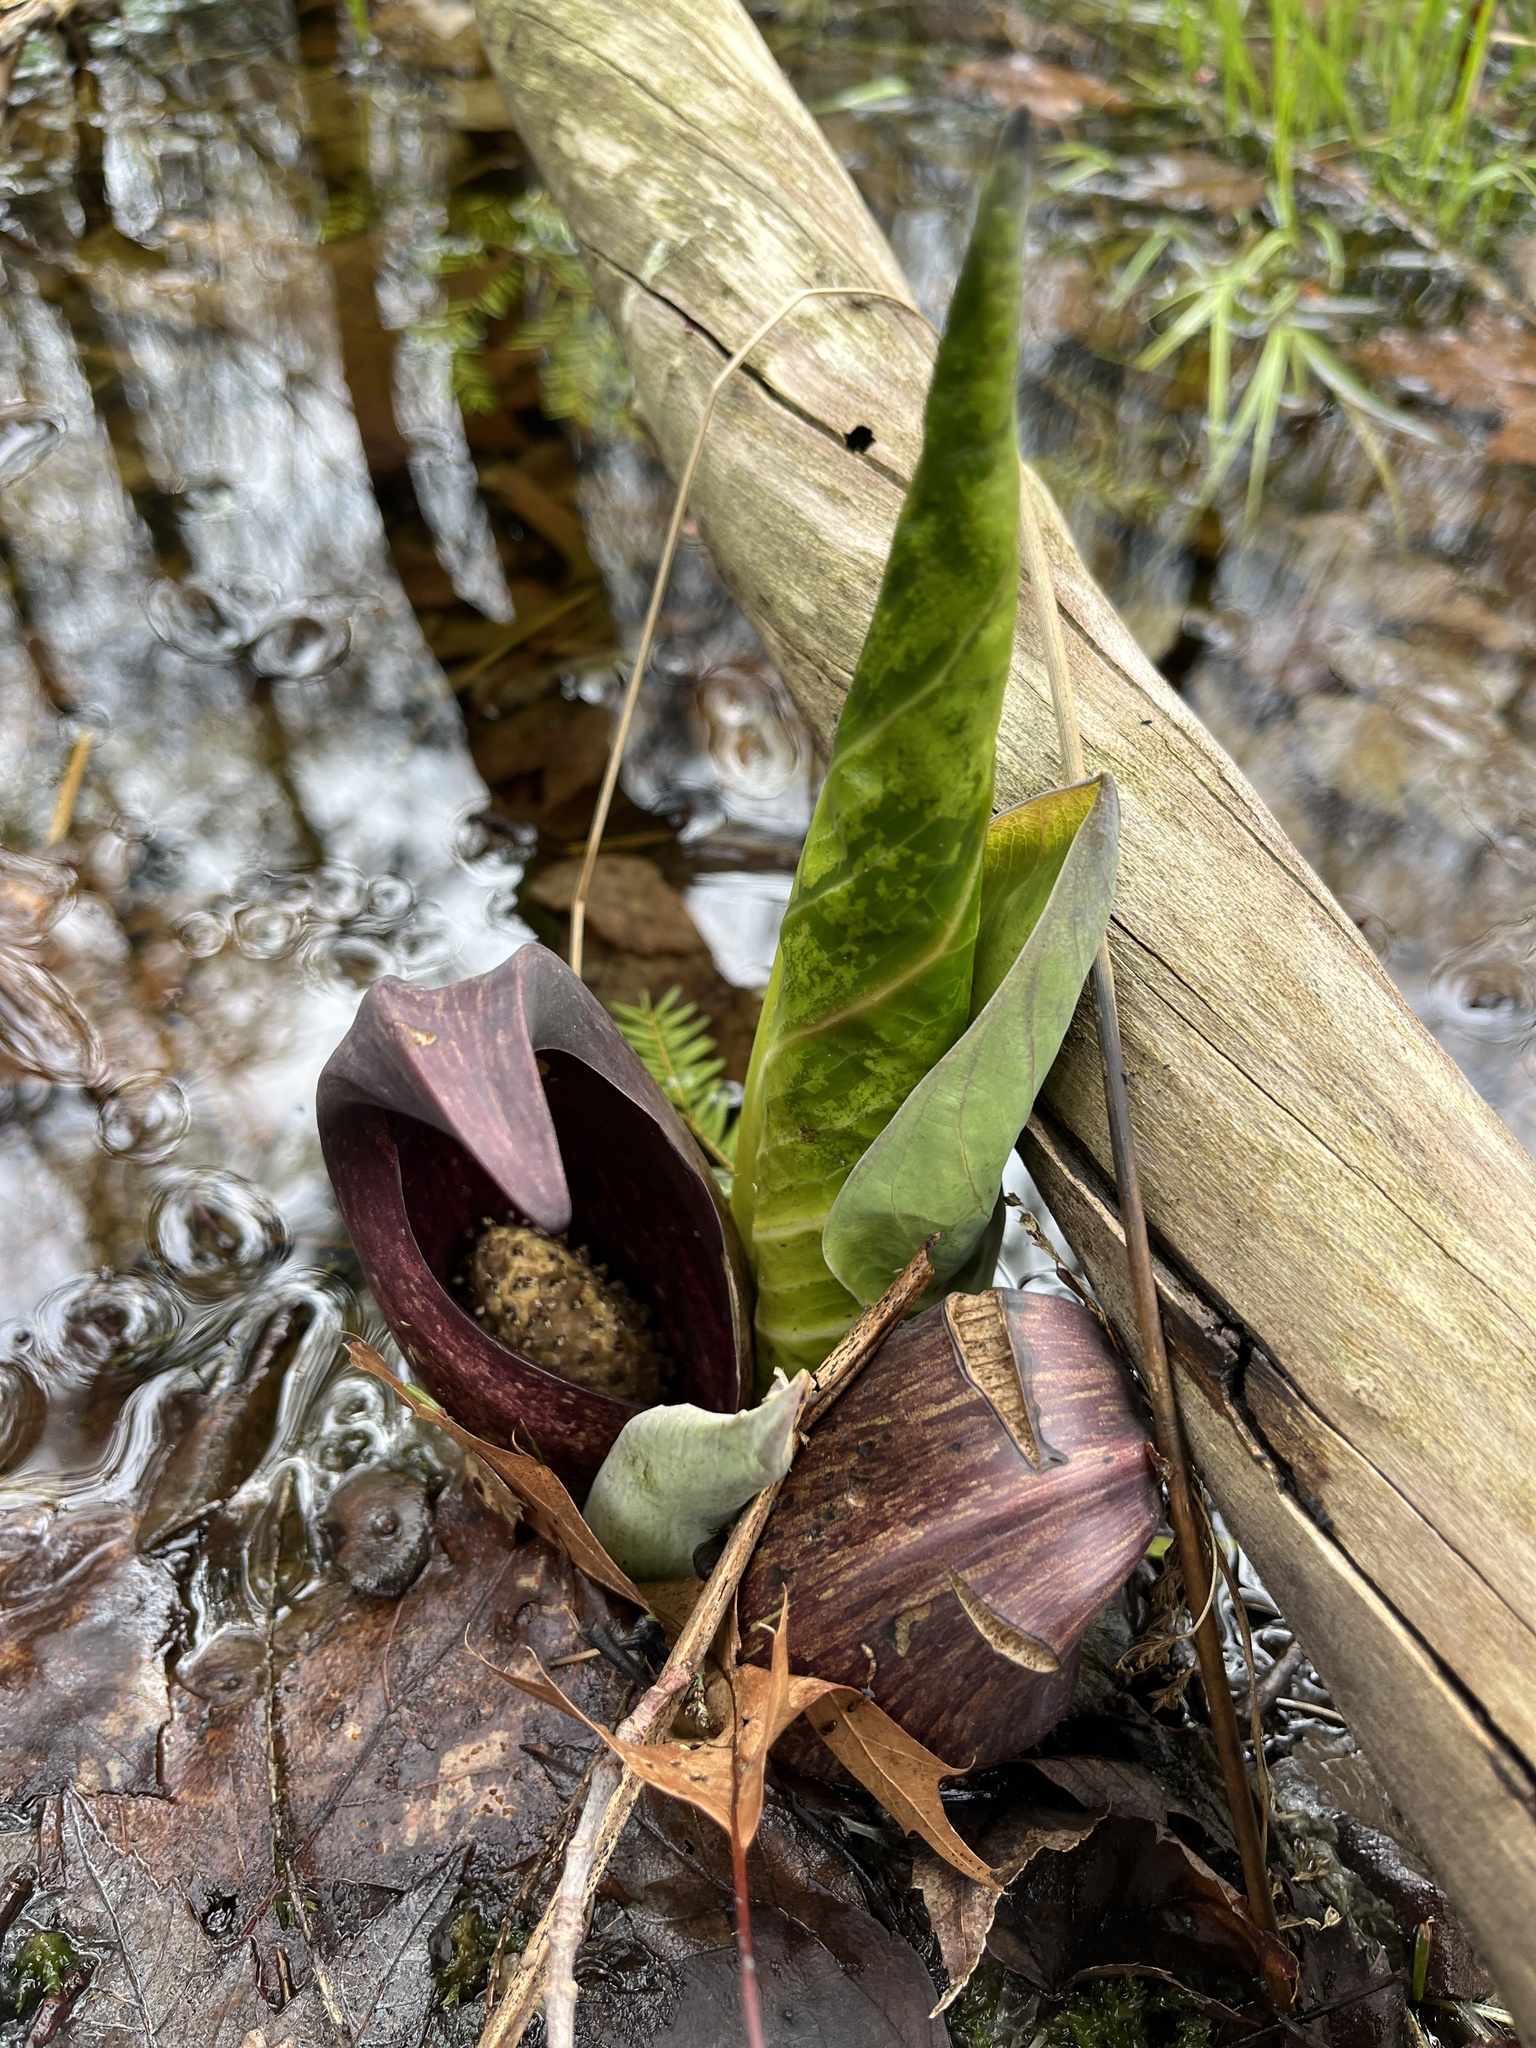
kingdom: Plantae
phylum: Tracheophyta
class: Liliopsida
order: Alismatales
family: Araceae
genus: Symplocarpus
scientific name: Symplocarpus foetidus
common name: Eastern skunk cabbage
